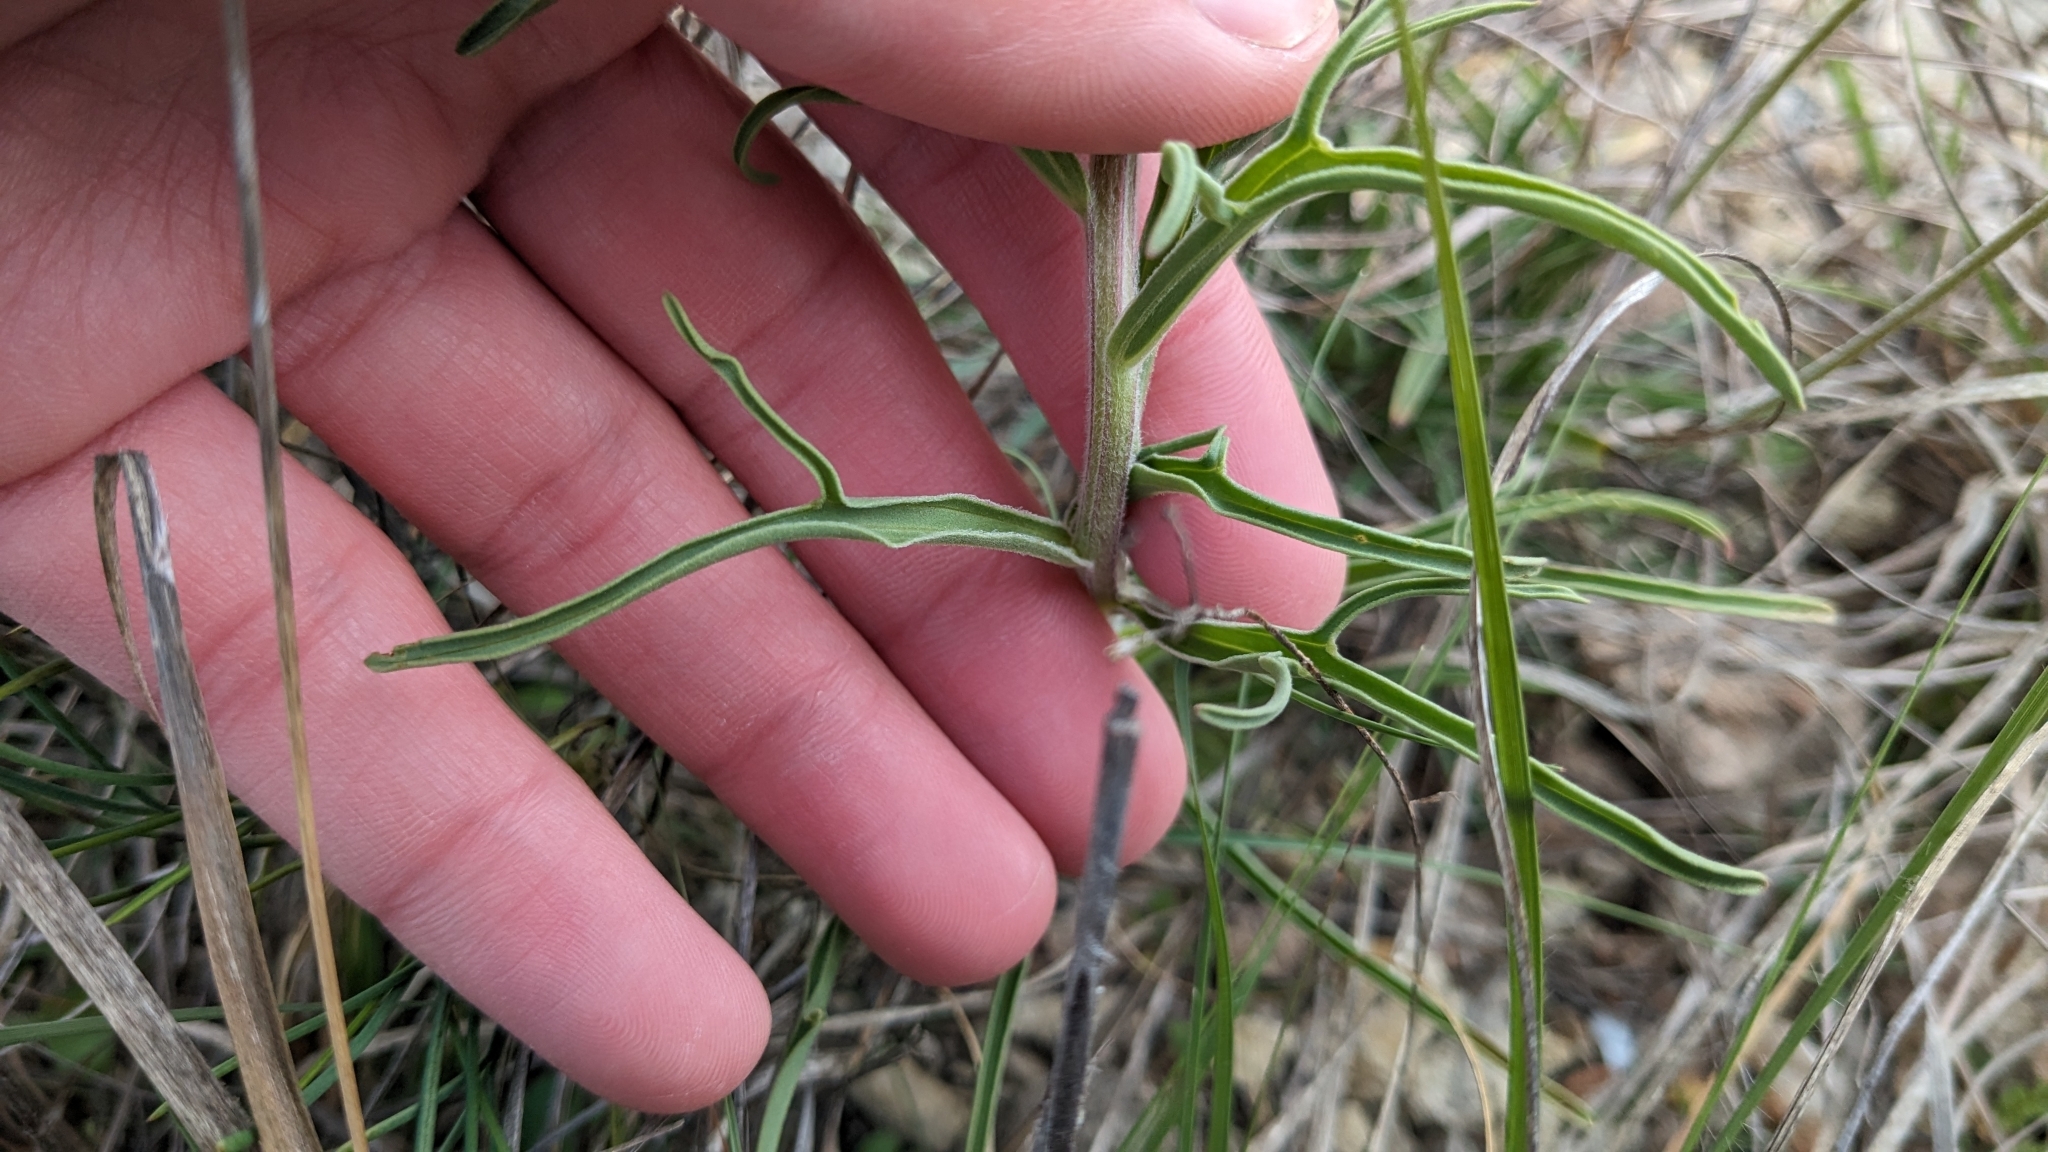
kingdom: Plantae
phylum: Tracheophyta
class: Magnoliopsida
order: Lamiales
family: Orobanchaceae
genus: Castilleja
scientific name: Castilleja lindheimeri
